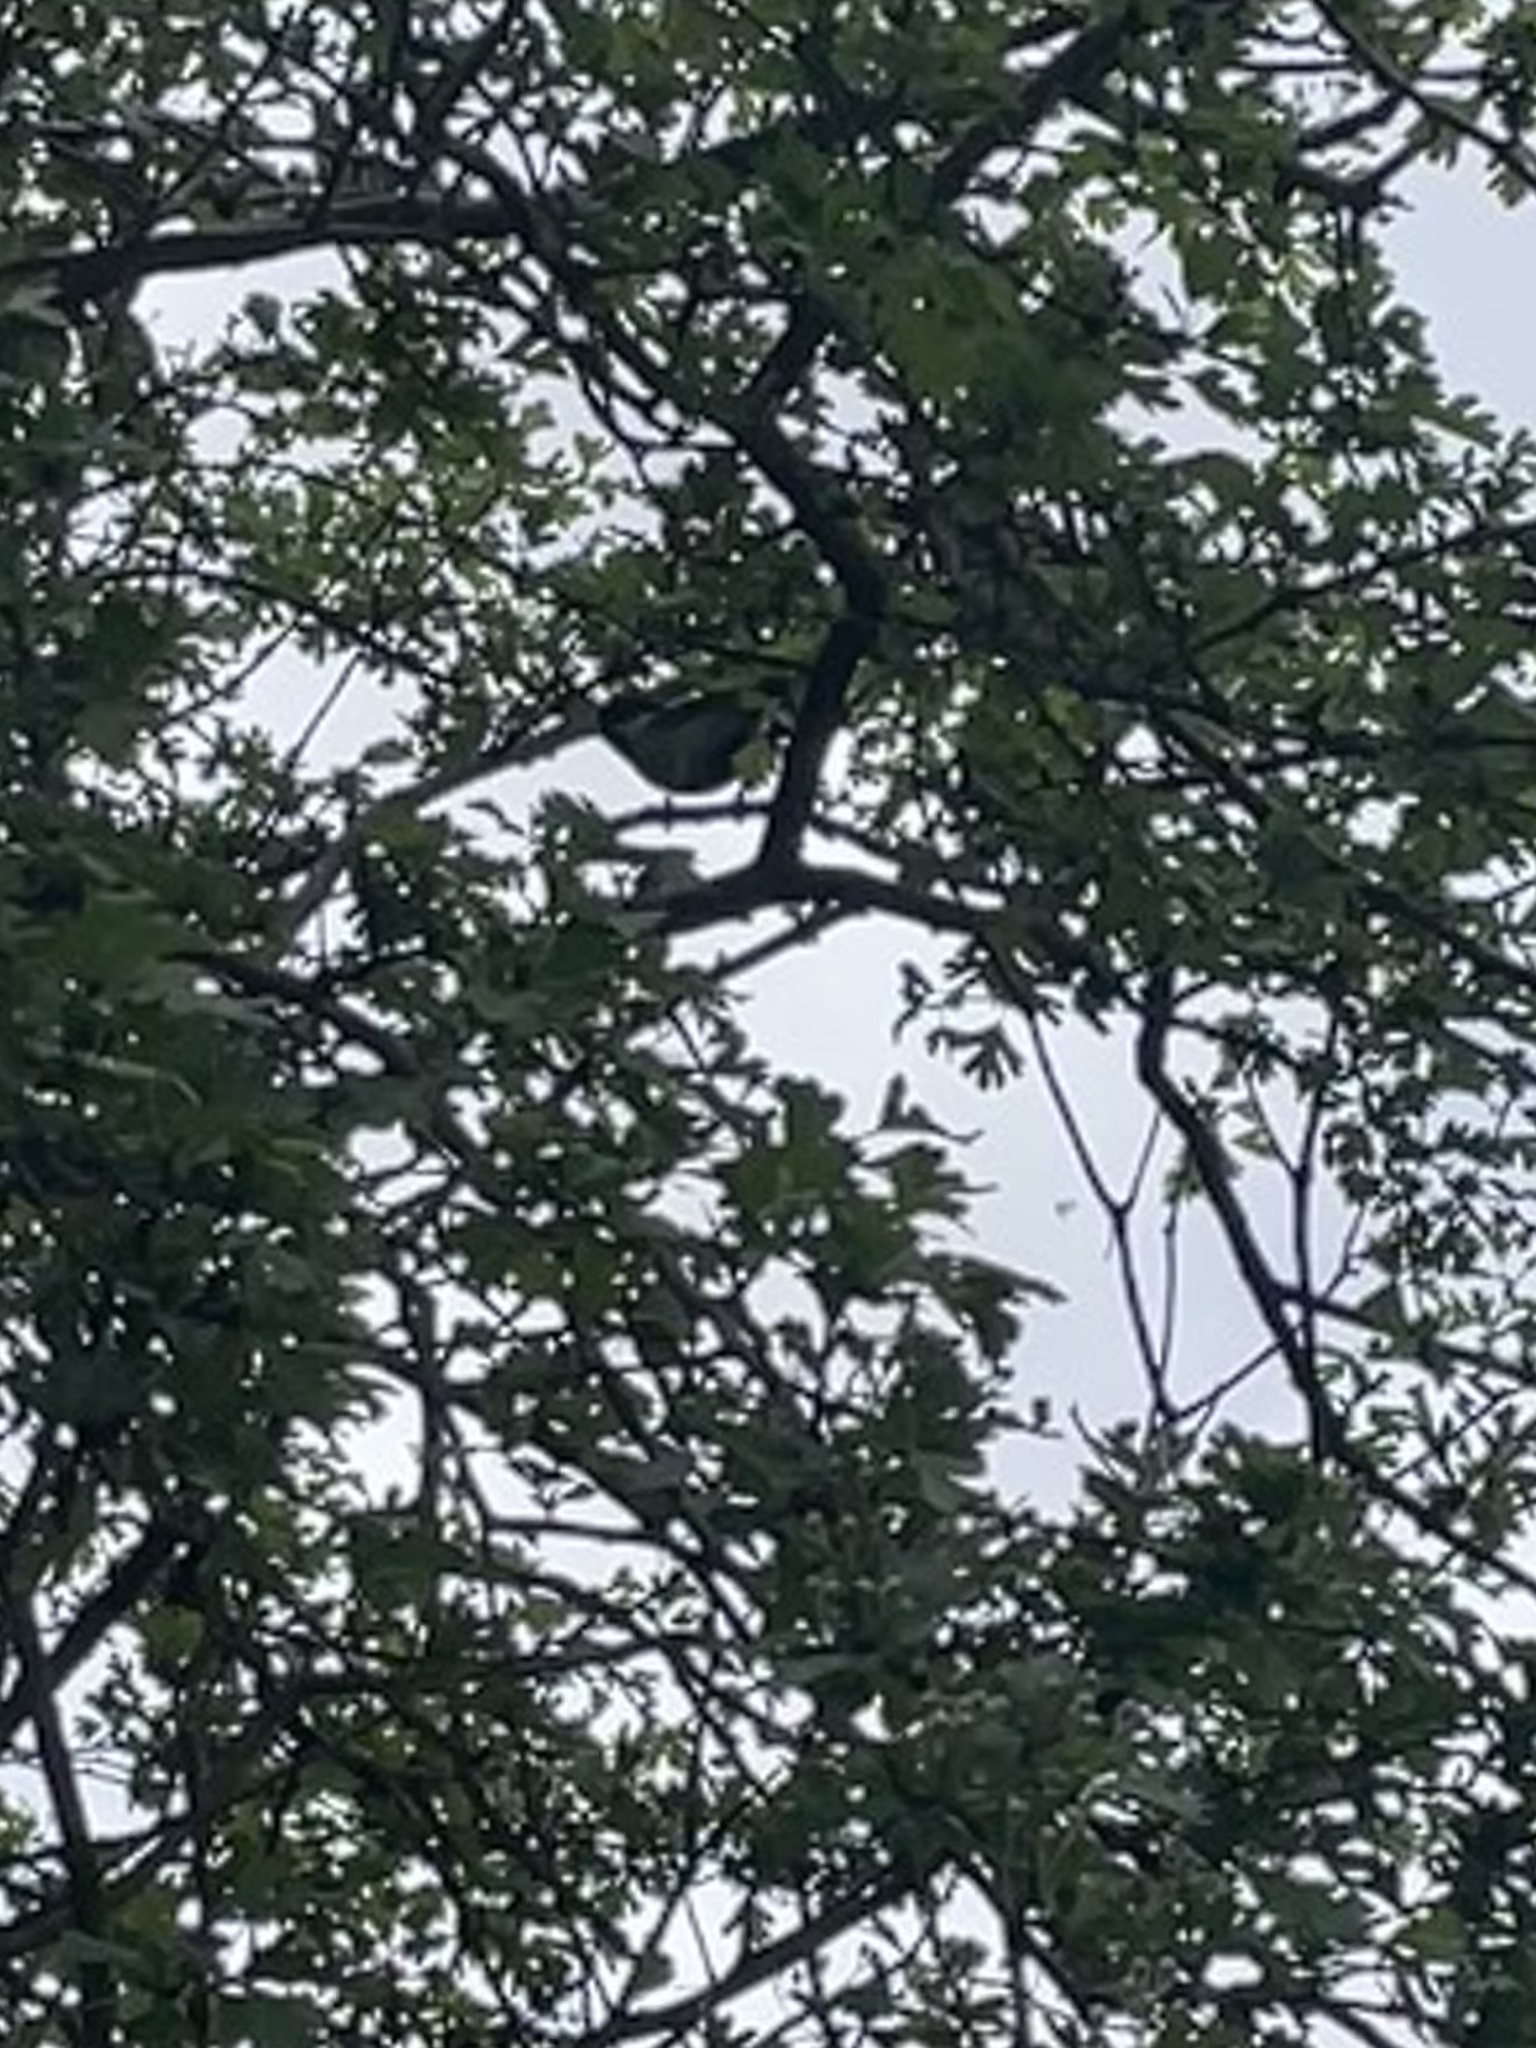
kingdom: Animalia
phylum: Chordata
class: Aves
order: Passeriformes
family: Paridae
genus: Parus
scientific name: Parus major
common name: Great tit
